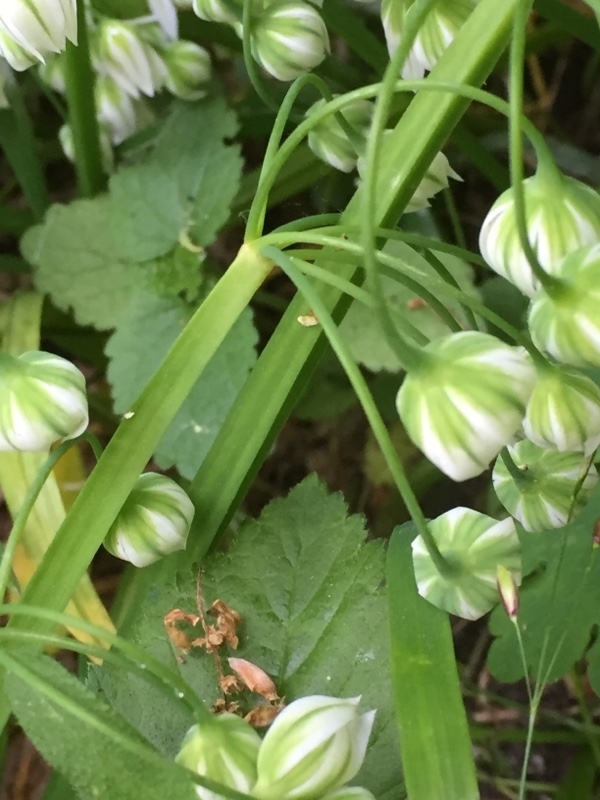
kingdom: Plantae
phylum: Tracheophyta
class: Liliopsida
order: Asparagales
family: Amaryllidaceae
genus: Allium
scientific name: Allium triquetrum
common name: Three-cornered garlic
